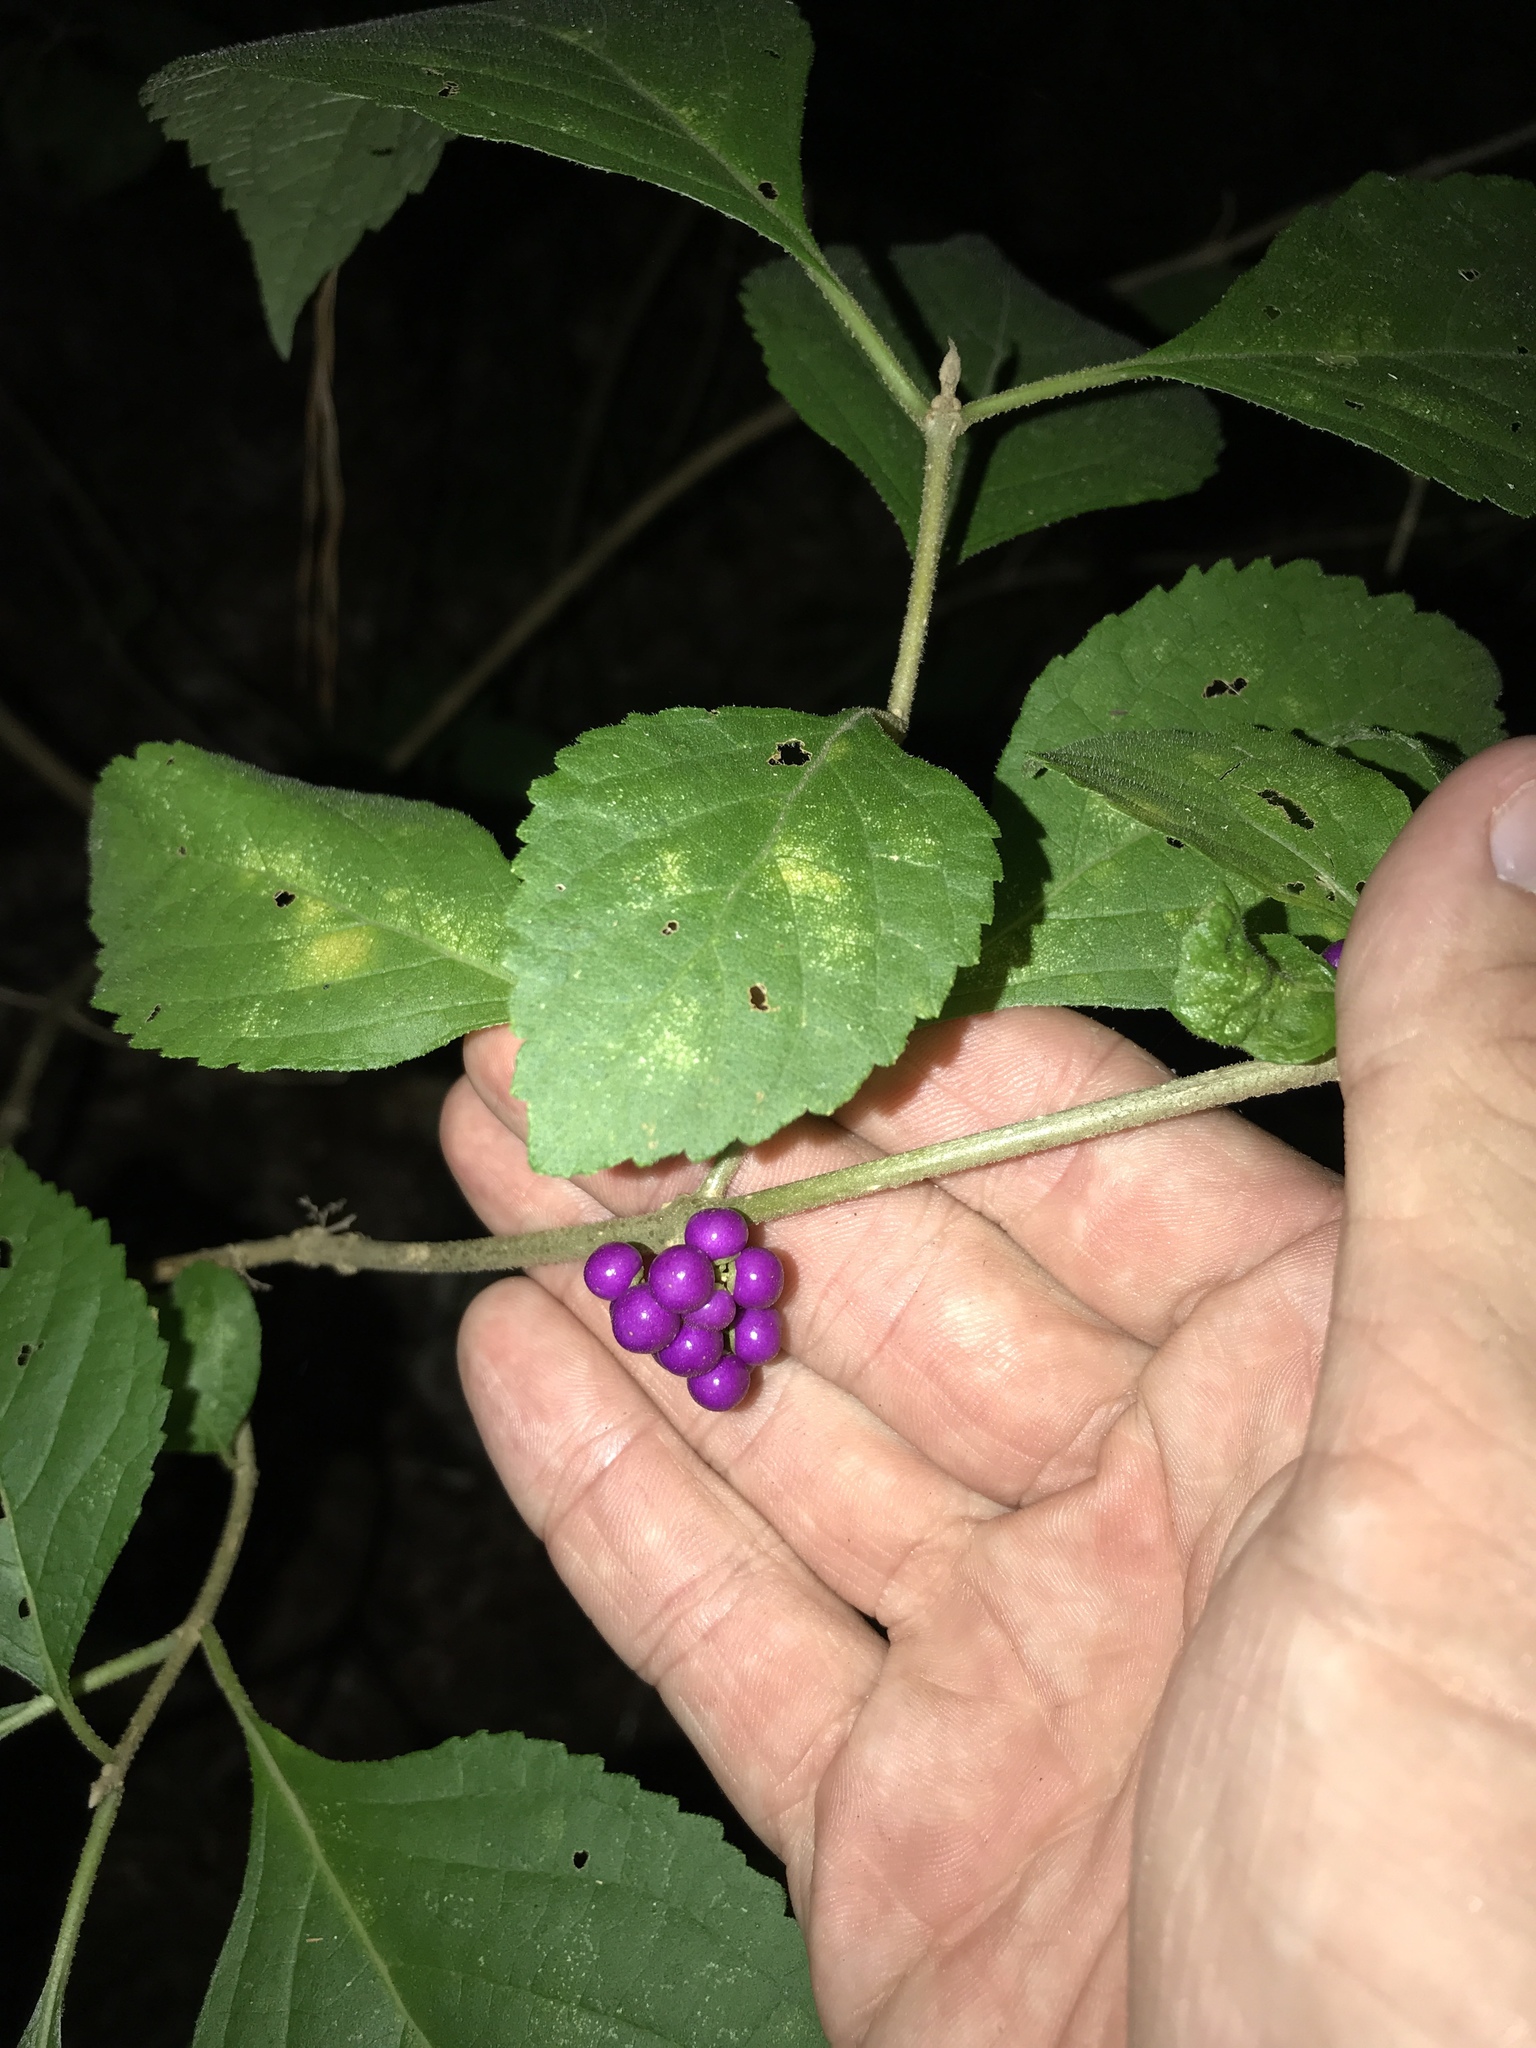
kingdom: Plantae
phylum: Tracheophyta
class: Magnoliopsida
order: Lamiales
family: Lamiaceae
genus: Callicarpa
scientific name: Callicarpa americana
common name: American beautyberry
